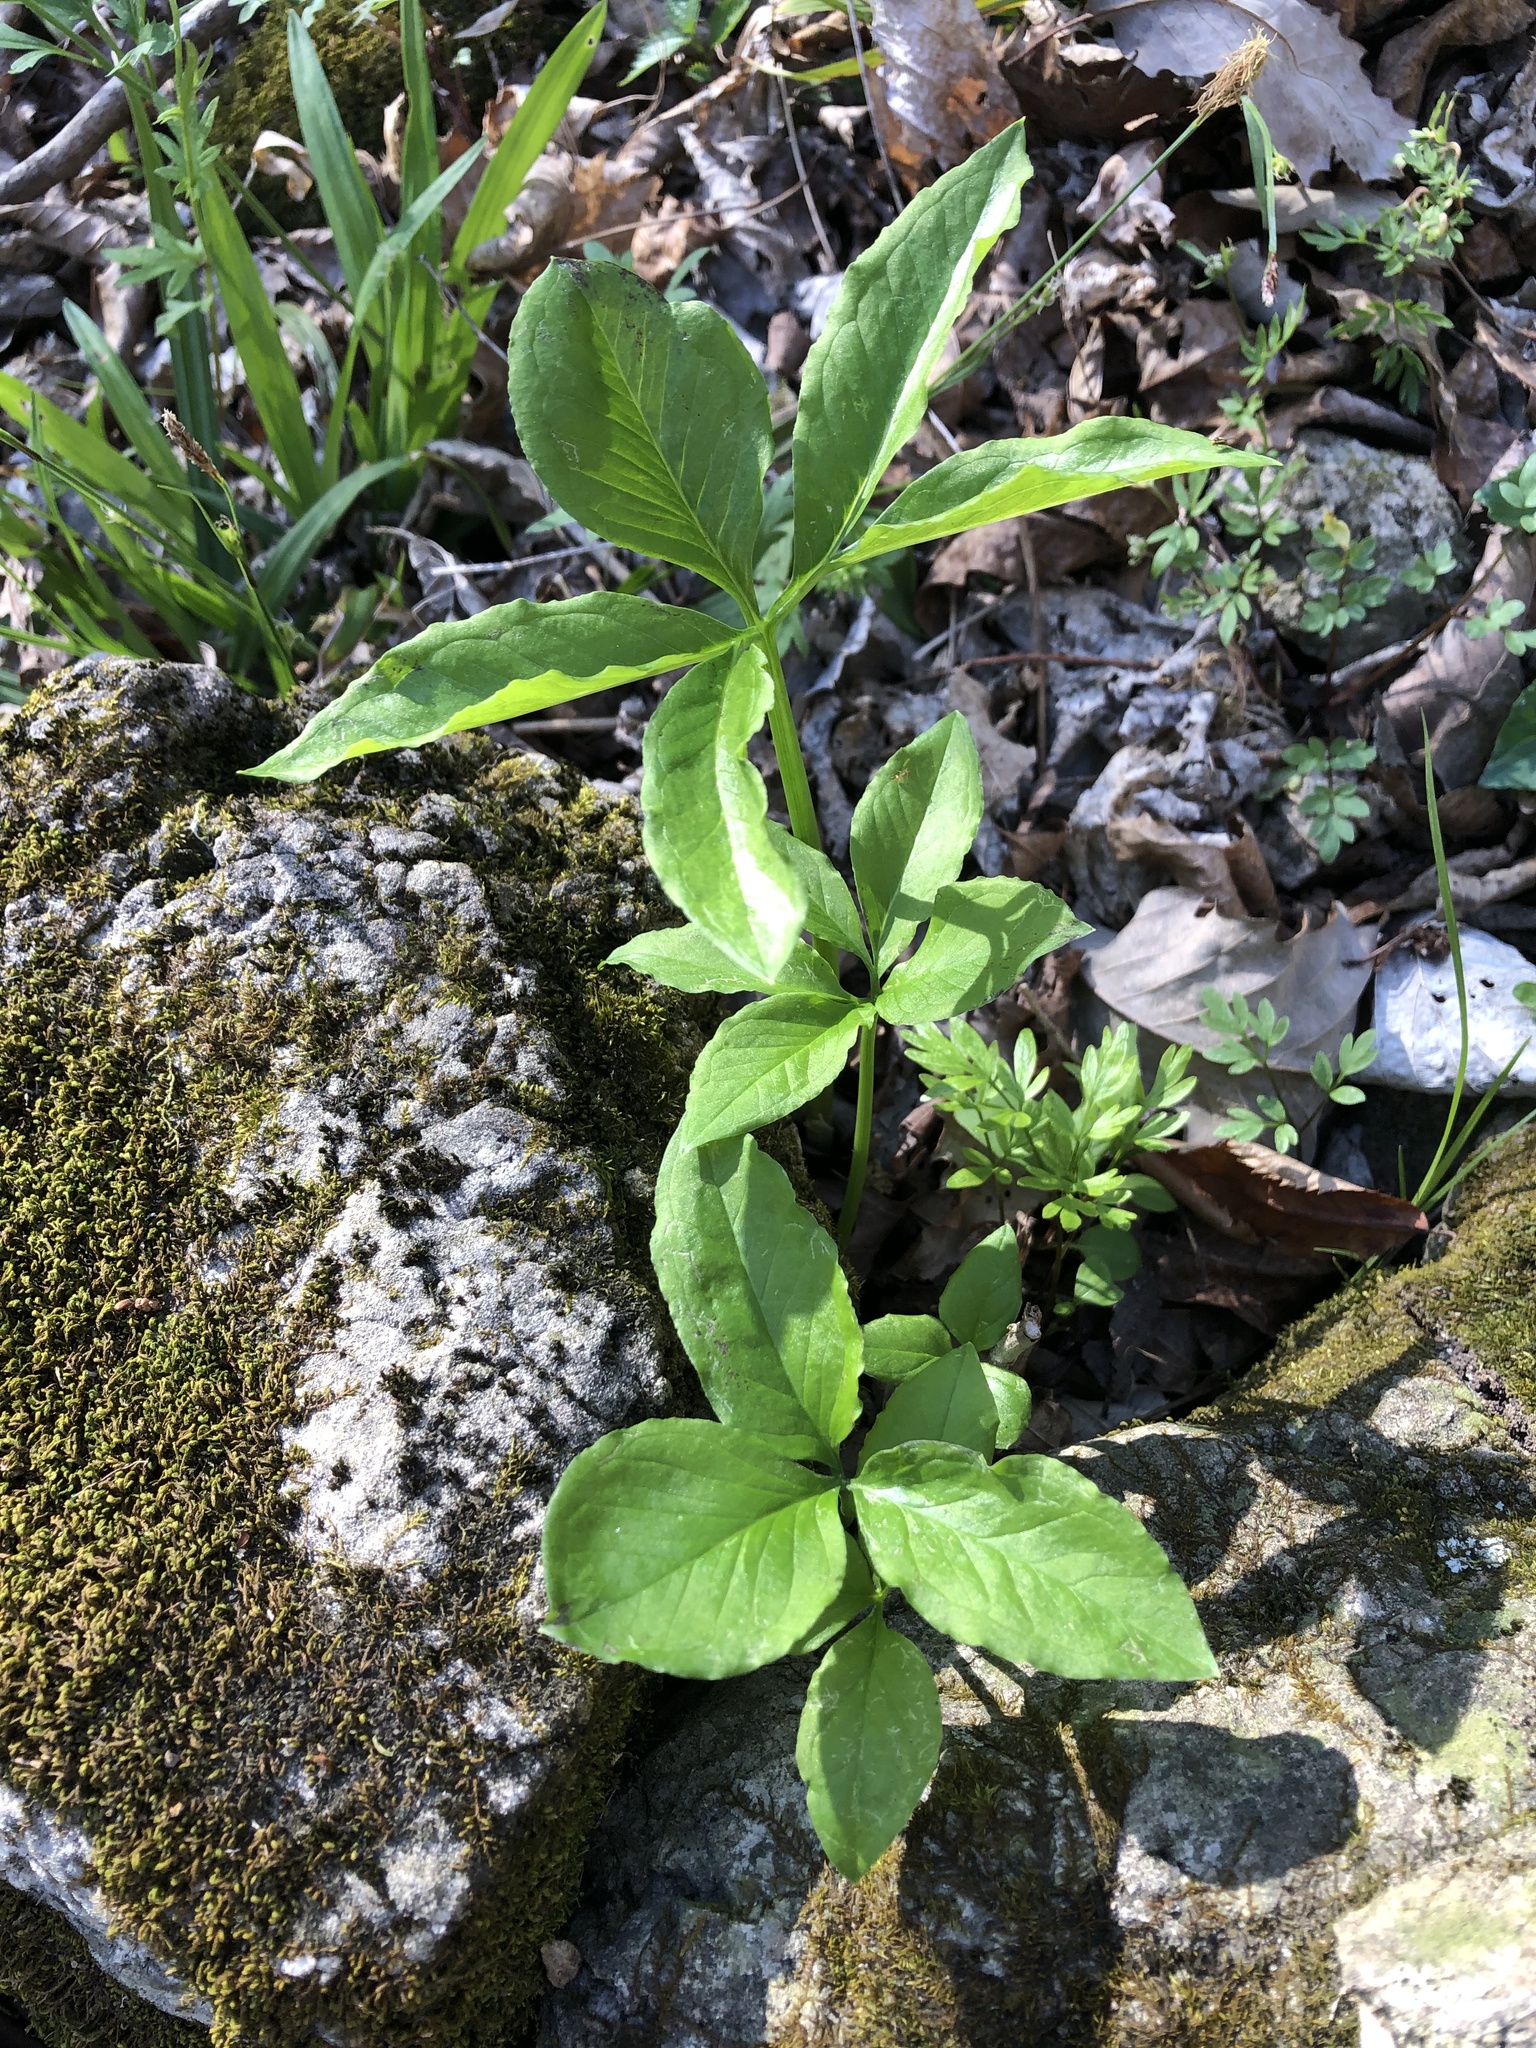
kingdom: Plantae
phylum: Tracheophyta
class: Liliopsida
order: Alismatales
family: Araceae
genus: Arisaema
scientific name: Arisaema dracontium
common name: Dragon-arum
